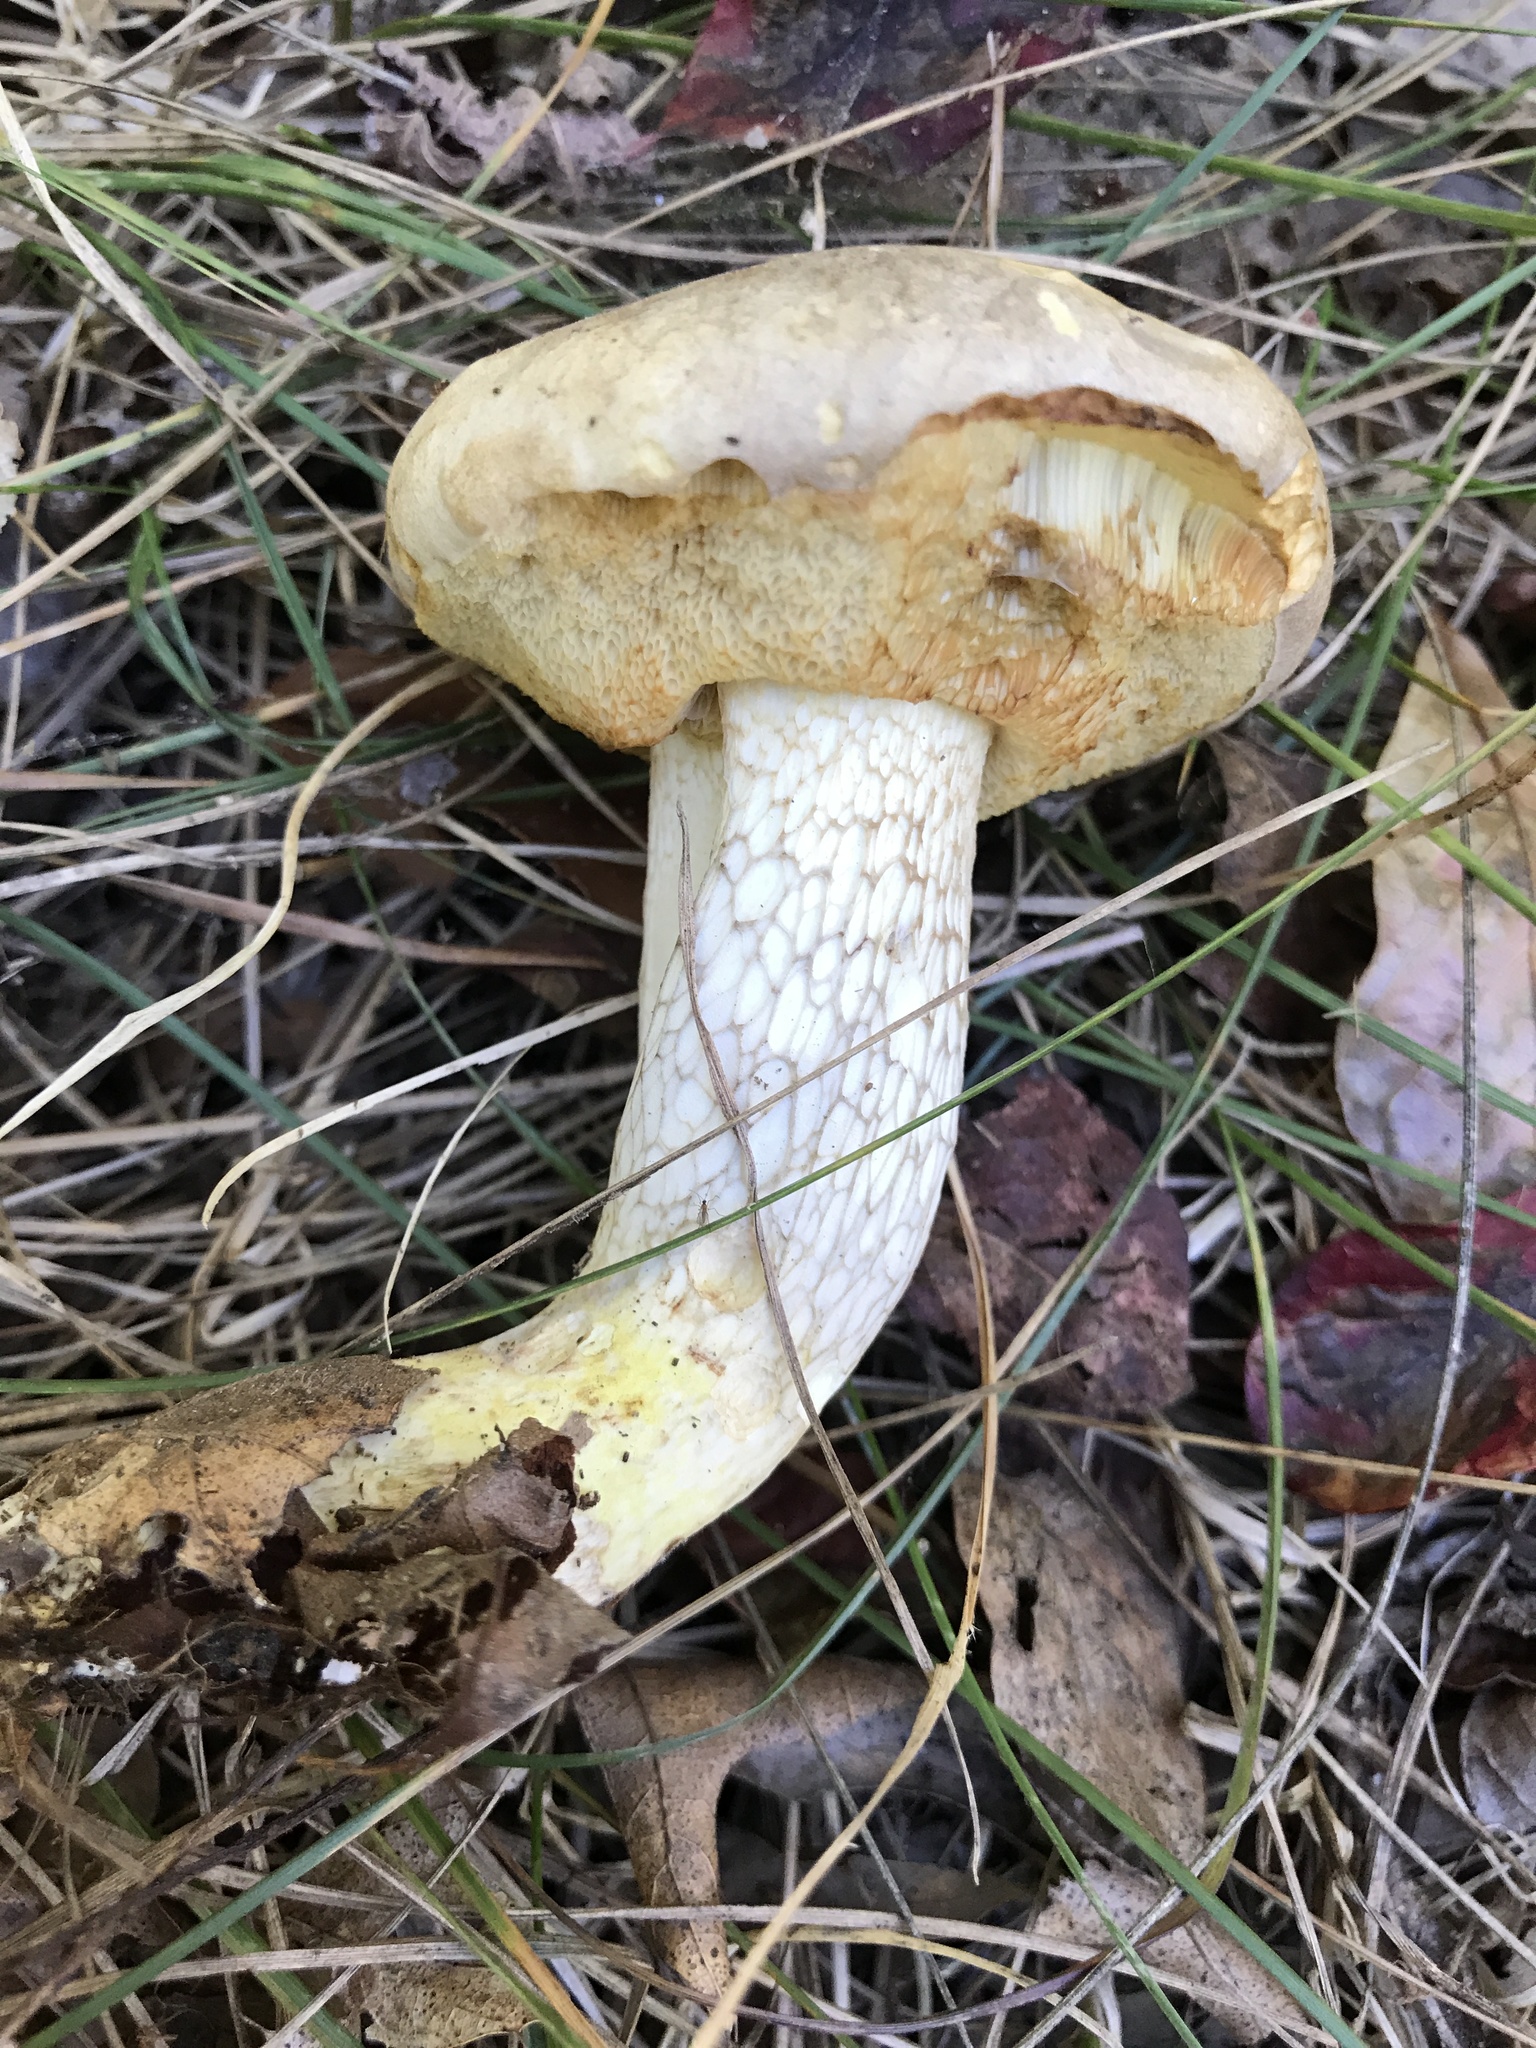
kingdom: Fungi
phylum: Basidiomycota
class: Agaricomycetes
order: Boletales
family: Boletaceae
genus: Retiboletus
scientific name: Retiboletus vinaceipes
